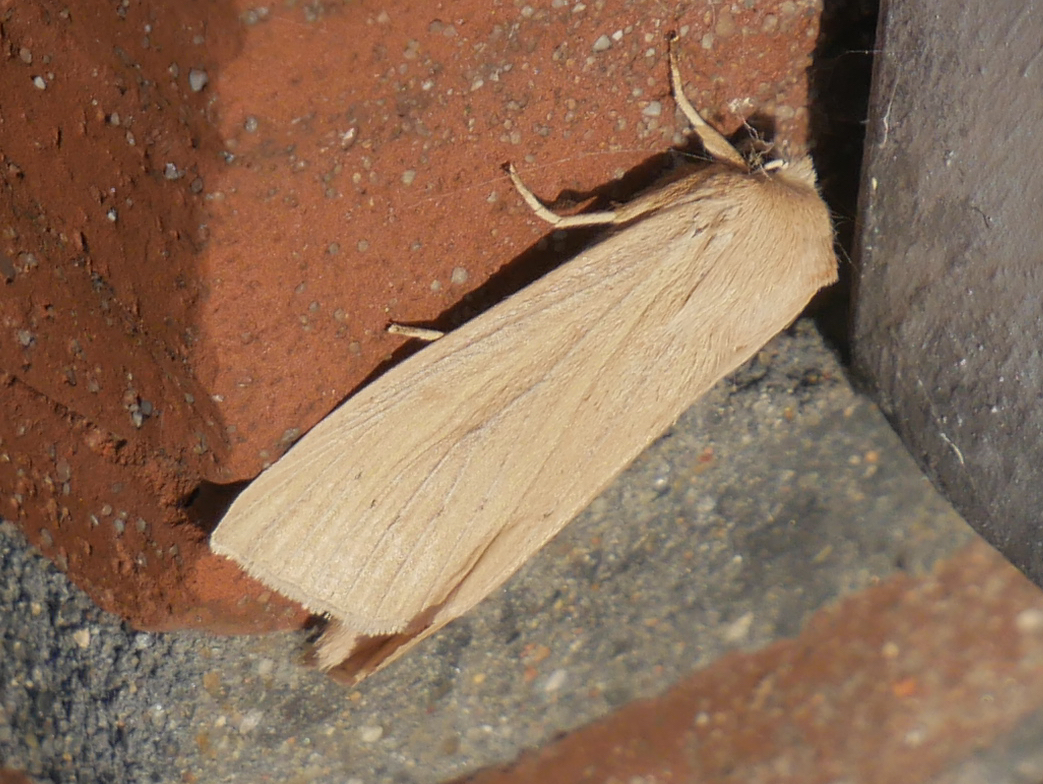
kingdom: Animalia
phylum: Arthropoda
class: Insecta
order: Lepidoptera
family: Noctuidae
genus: Rhizedra
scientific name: Rhizedra lutosa
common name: Large wainscot
